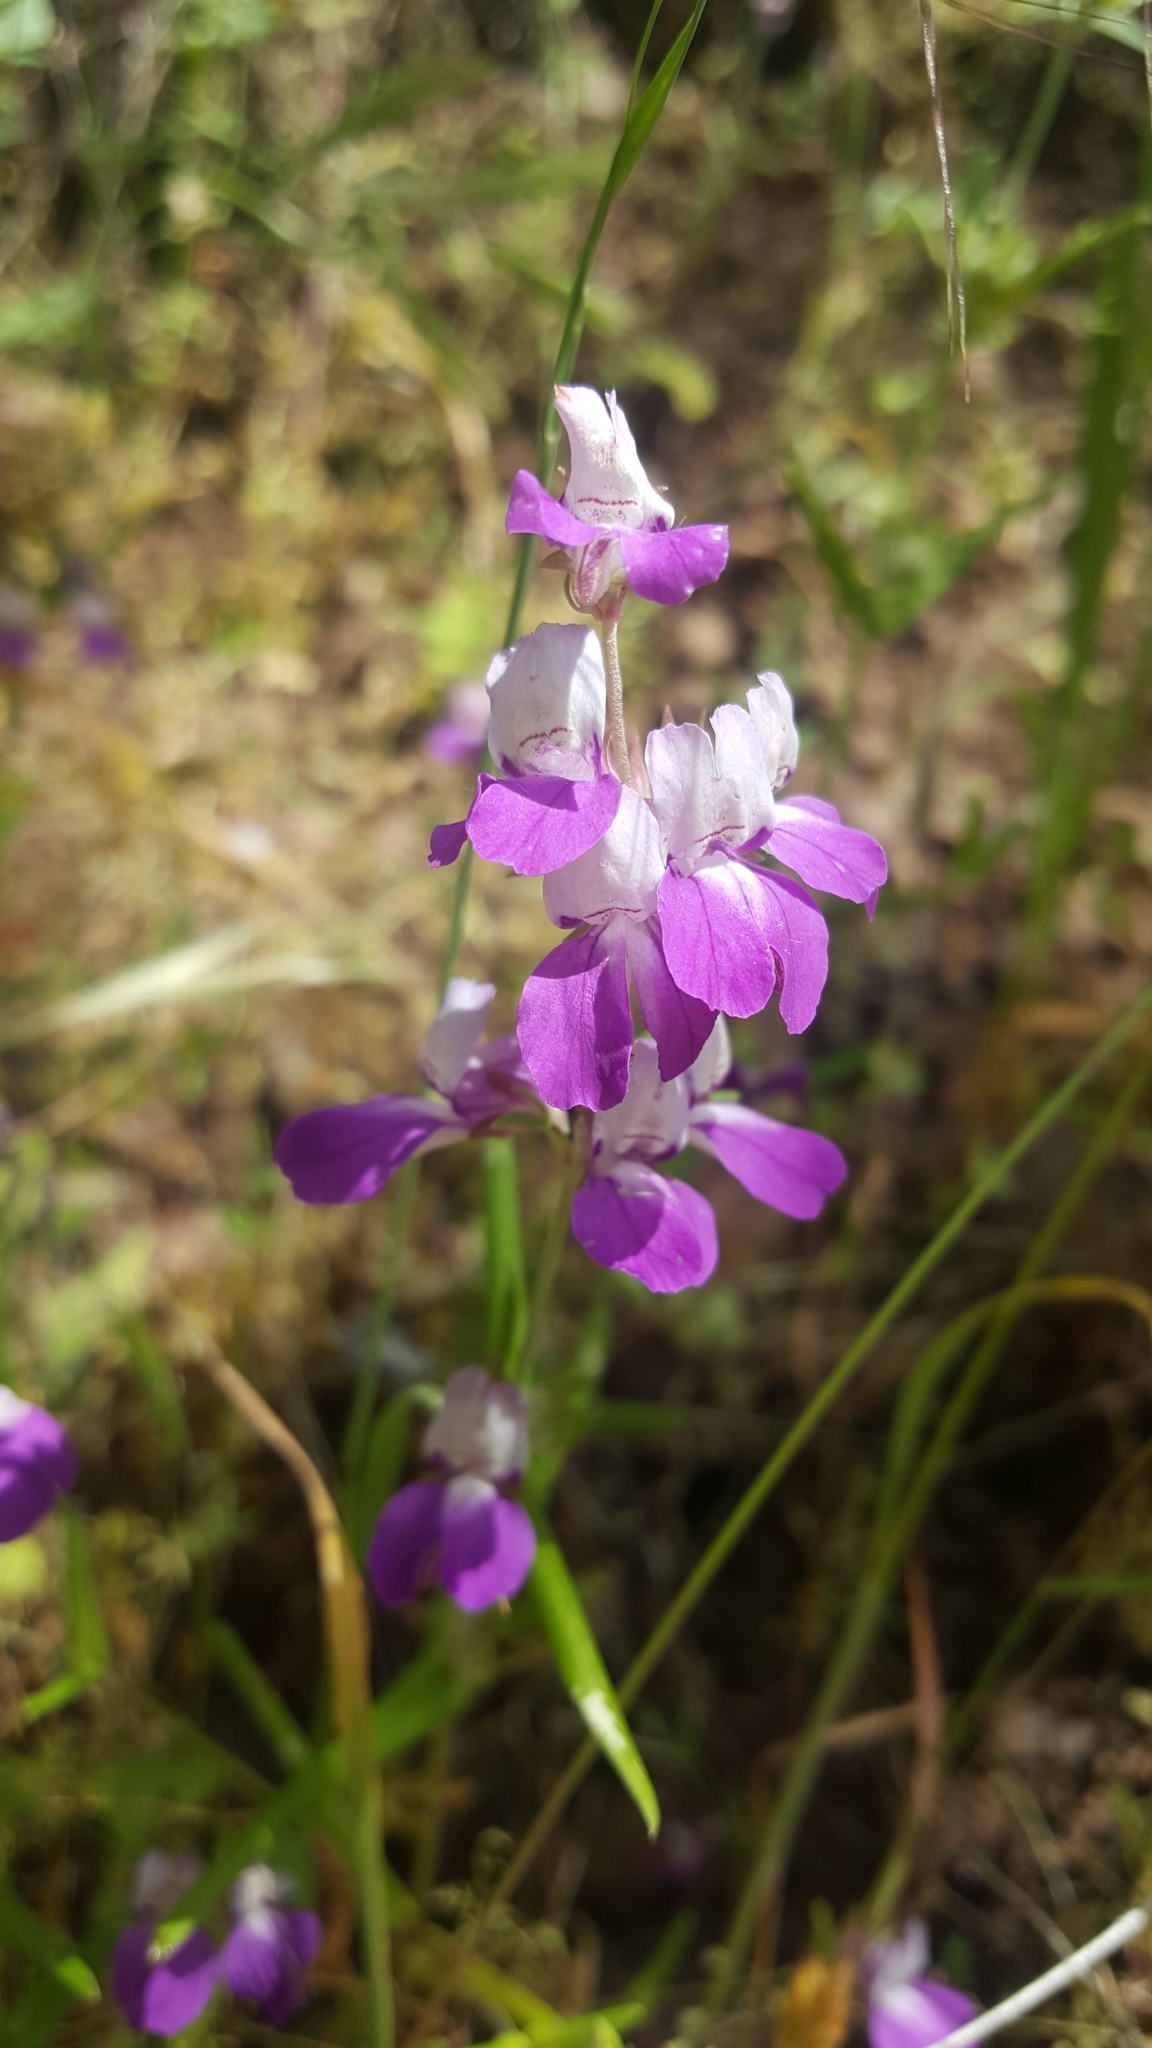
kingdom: Plantae
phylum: Tracheophyta
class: Magnoliopsida
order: Lamiales
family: Plantaginaceae
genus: Collinsia
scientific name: Collinsia heterophylla
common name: Chinese-houses
